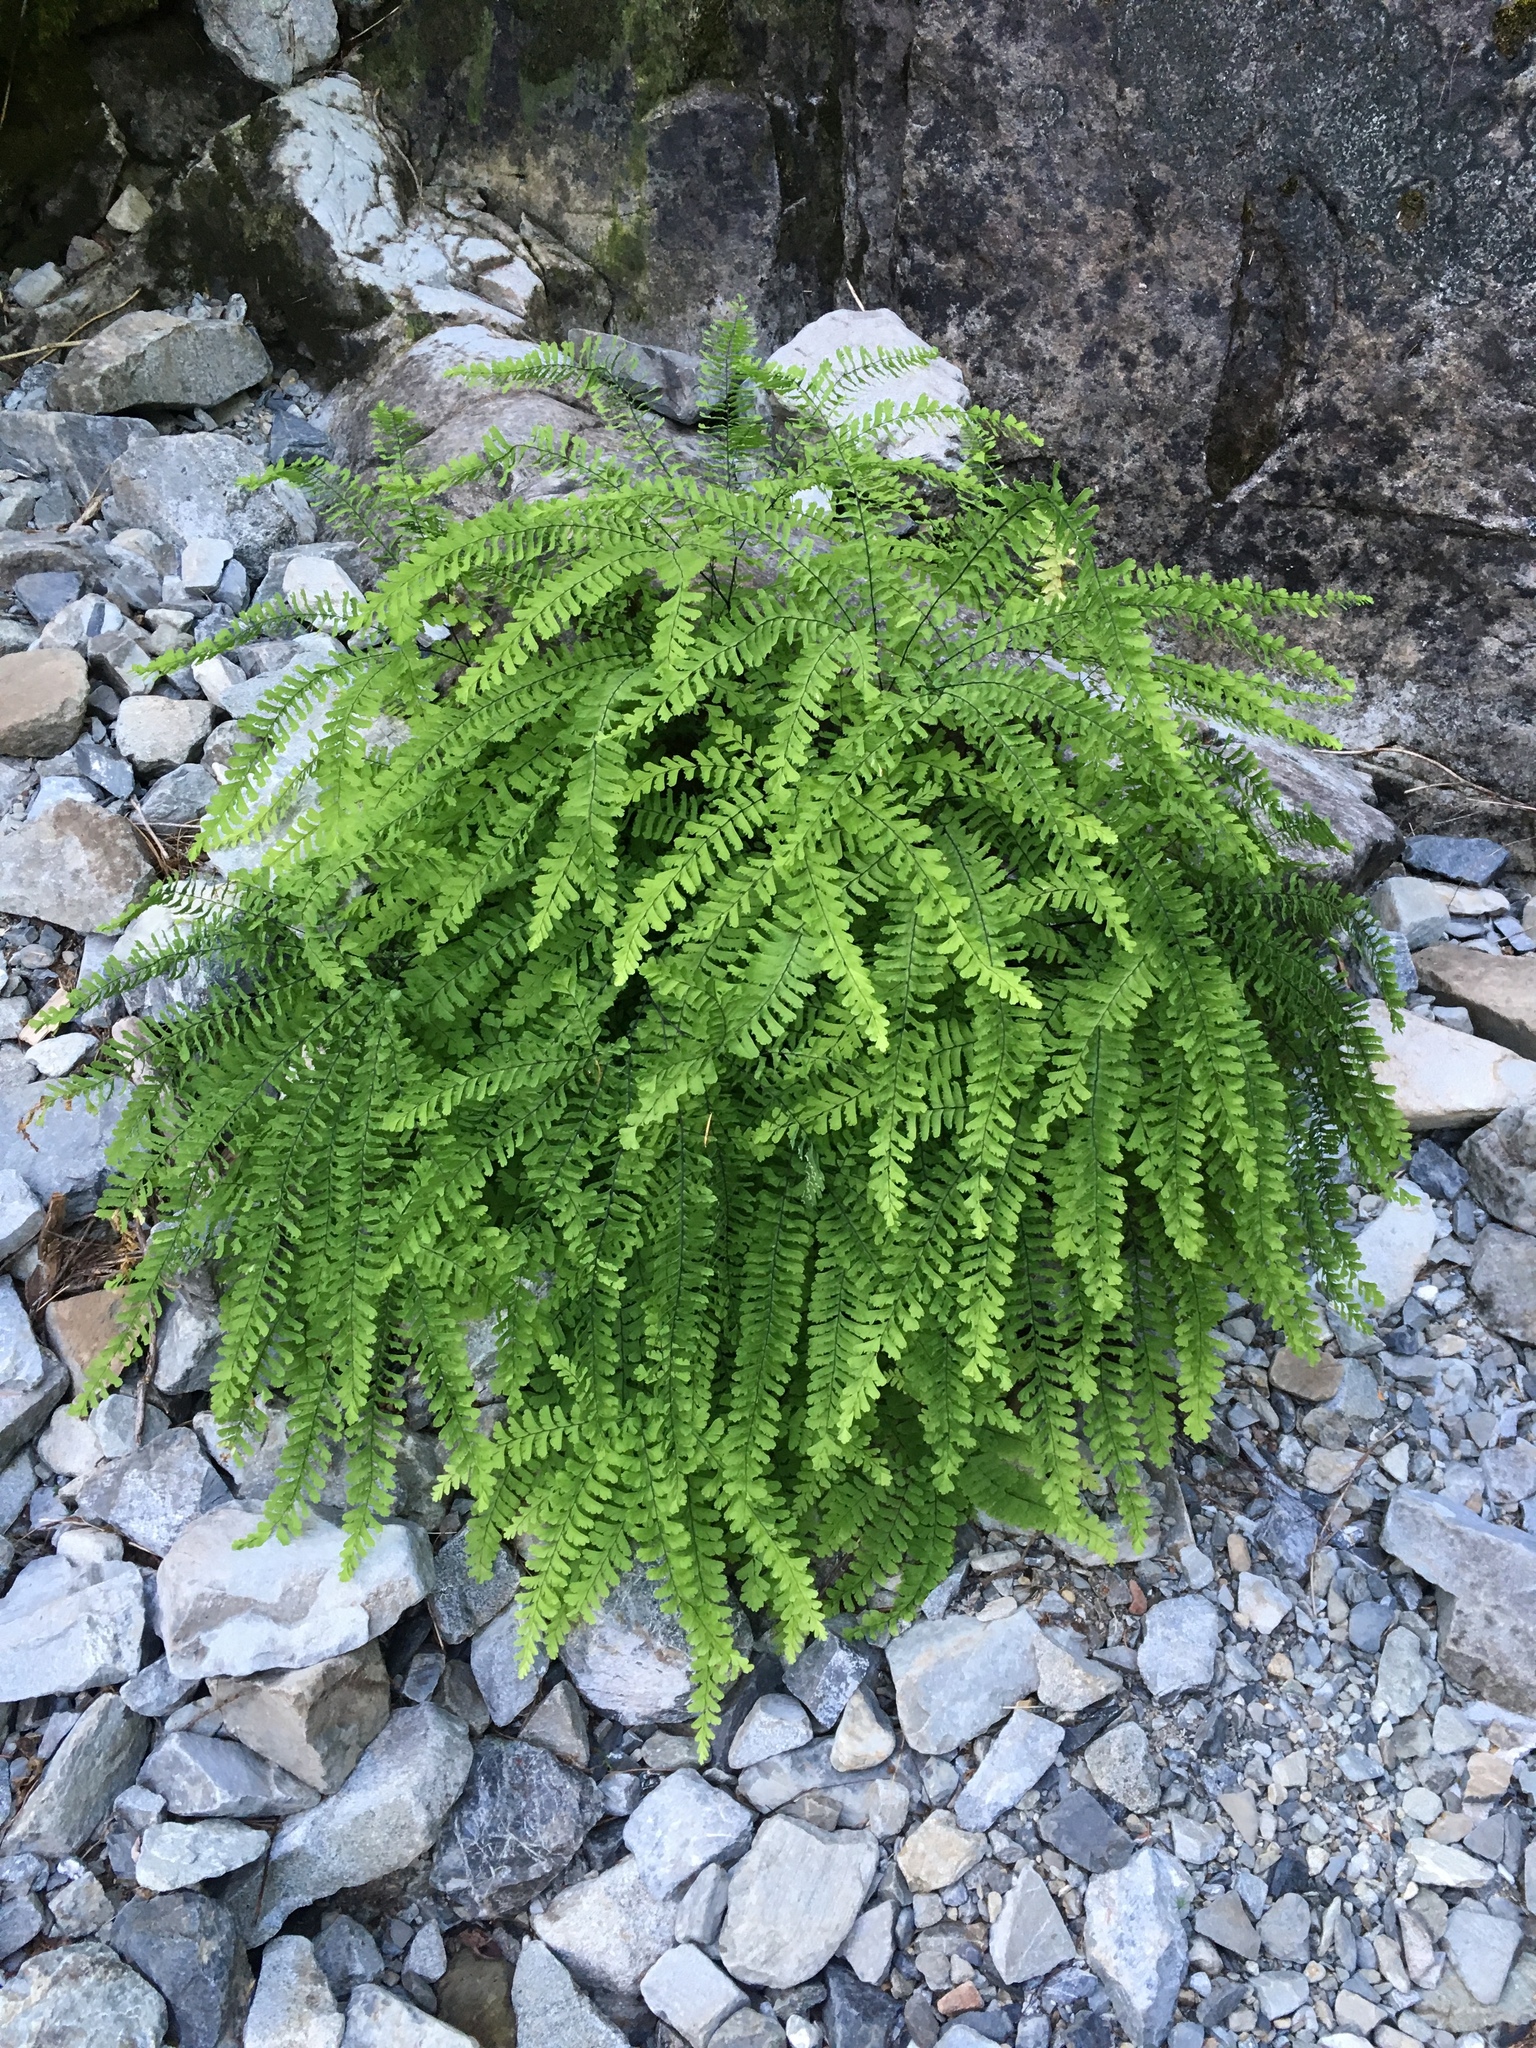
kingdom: Plantae
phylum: Tracheophyta
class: Polypodiopsida
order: Polypodiales
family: Pteridaceae
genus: Adiantum
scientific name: Adiantum aleuticum
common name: Aleutian maidenhair fern
